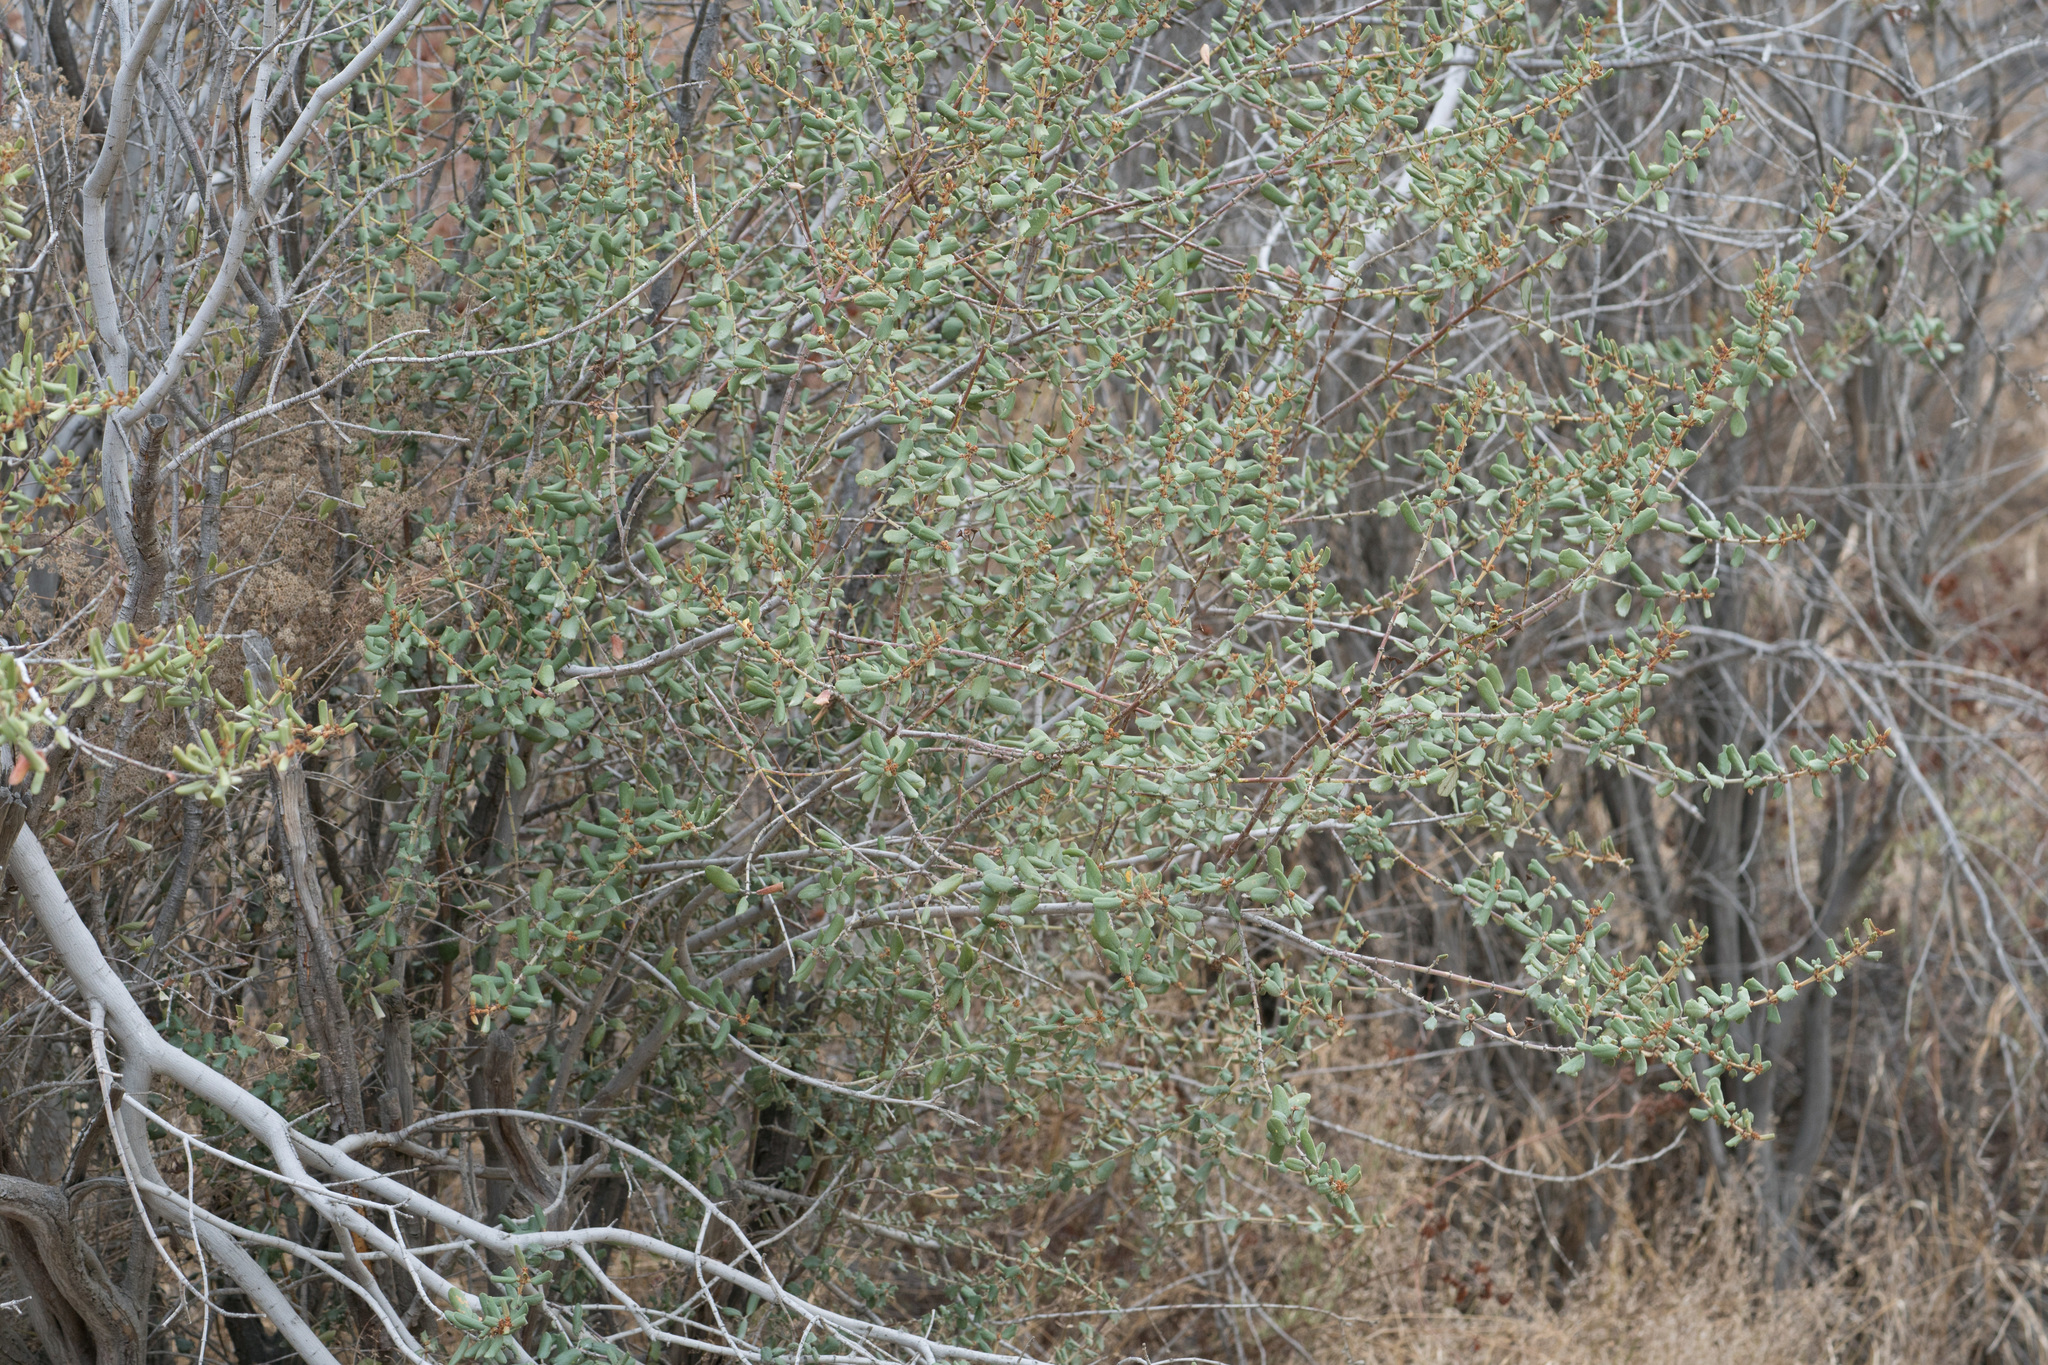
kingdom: Plantae
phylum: Tracheophyta
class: Magnoliopsida
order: Rosales
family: Rhamnaceae
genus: Ceanothus
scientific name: Ceanothus crassifolius
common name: Hoaryleaf ceanothus
